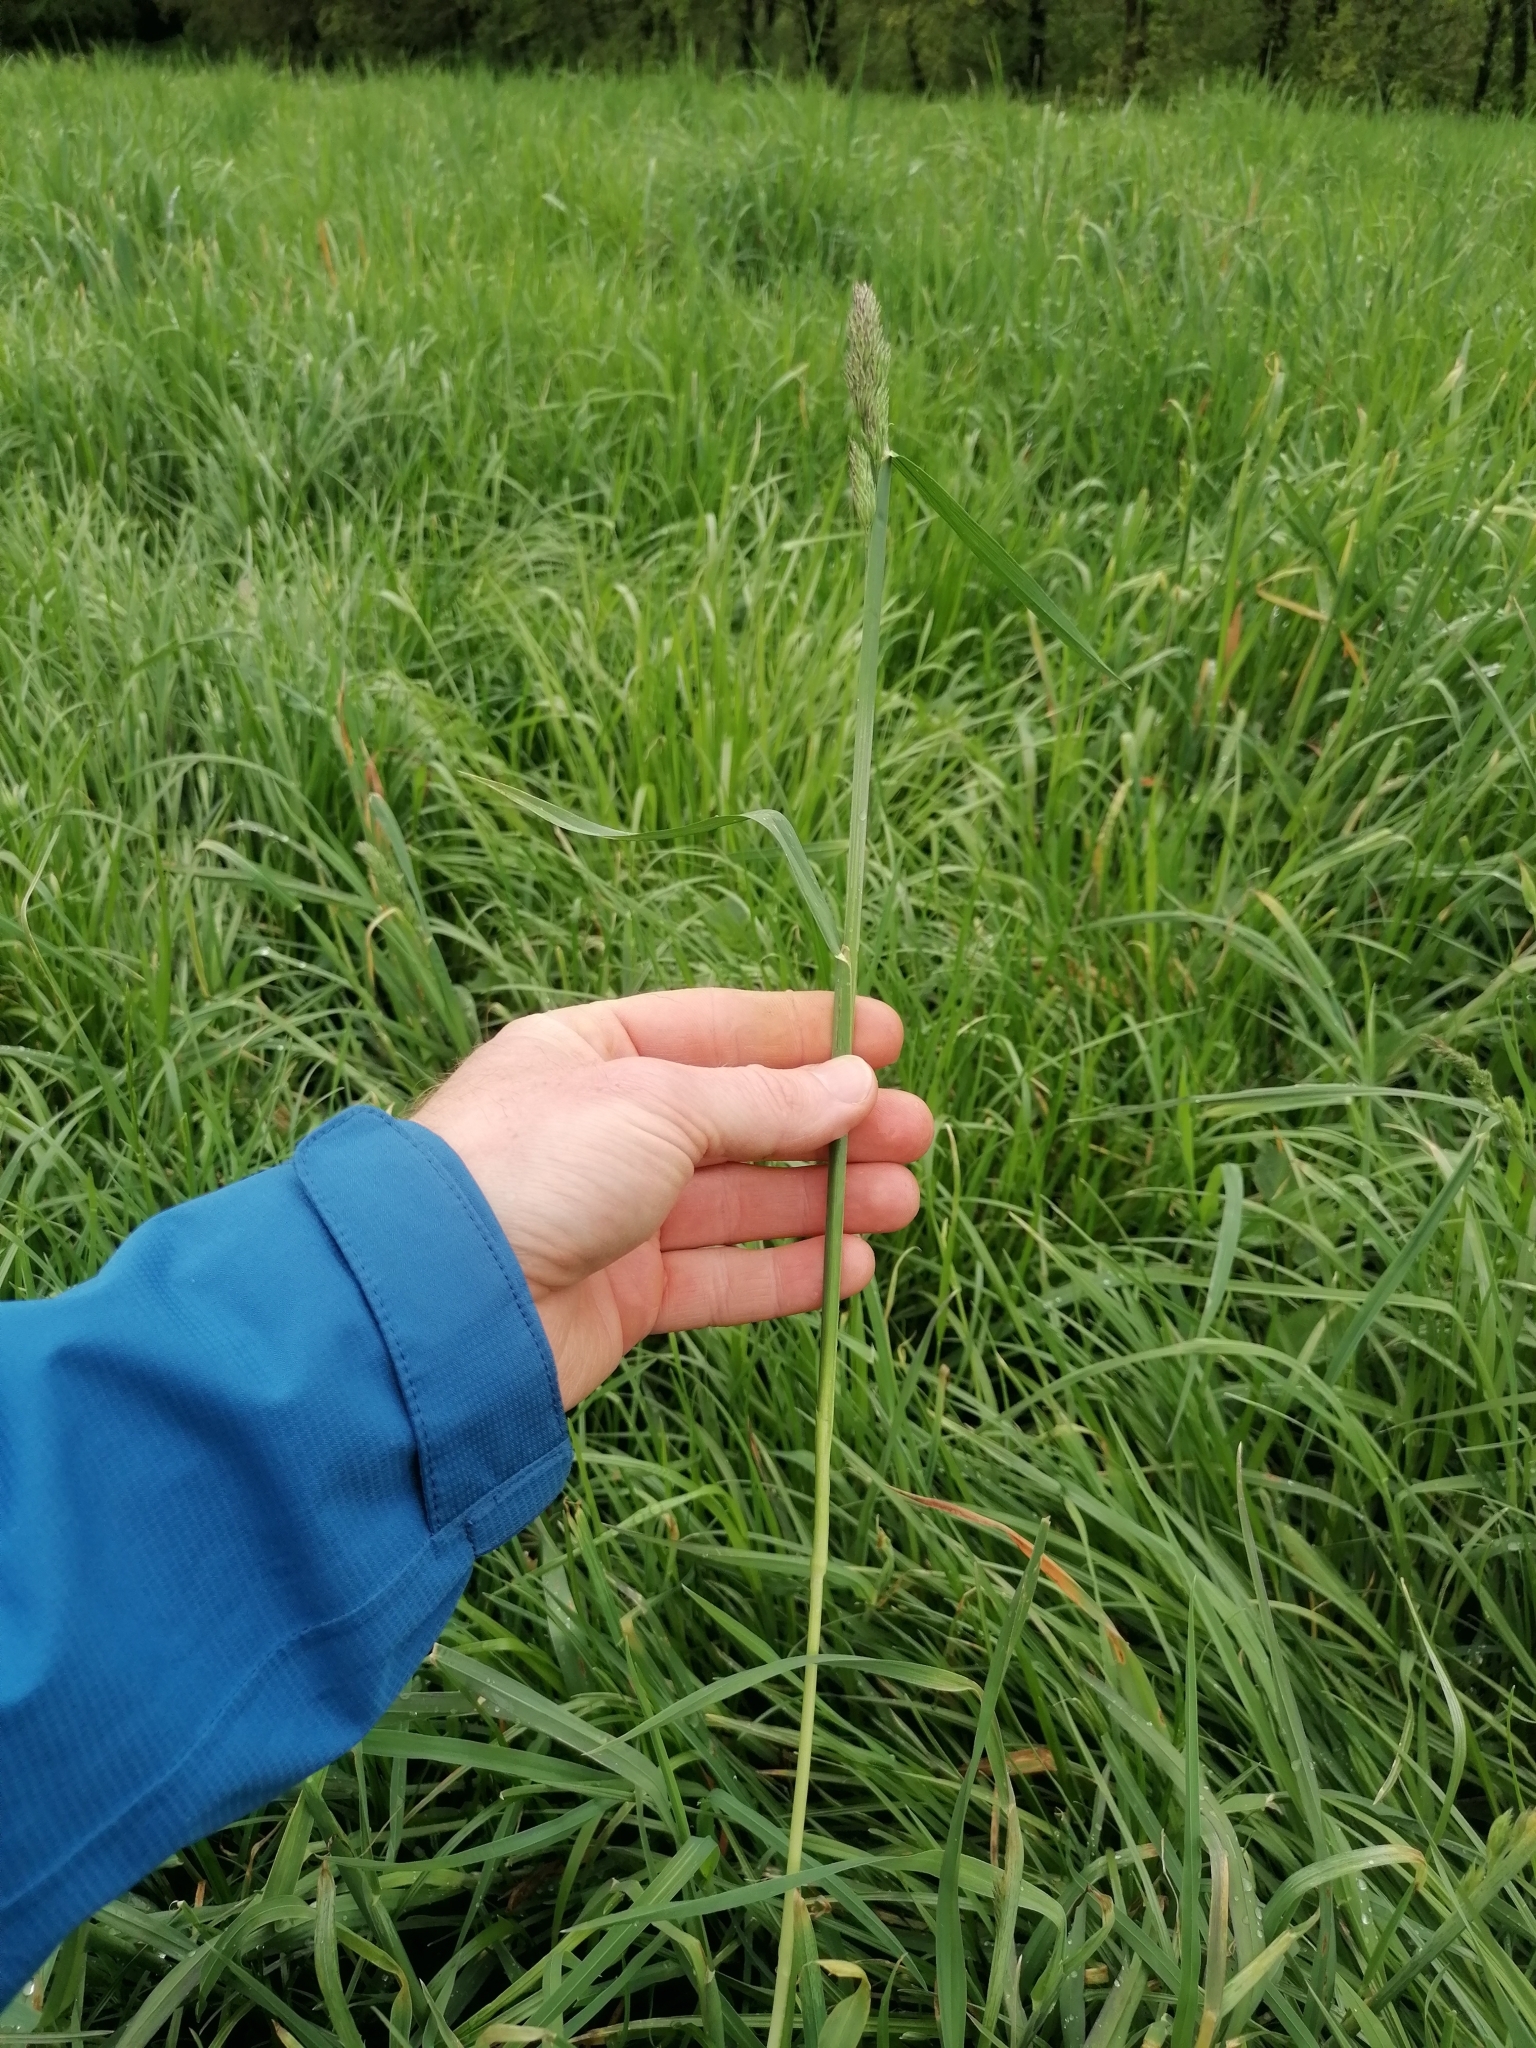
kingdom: Plantae
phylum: Tracheophyta
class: Liliopsida
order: Poales
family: Poaceae
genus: Dactylis
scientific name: Dactylis glomerata
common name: Orchardgrass
